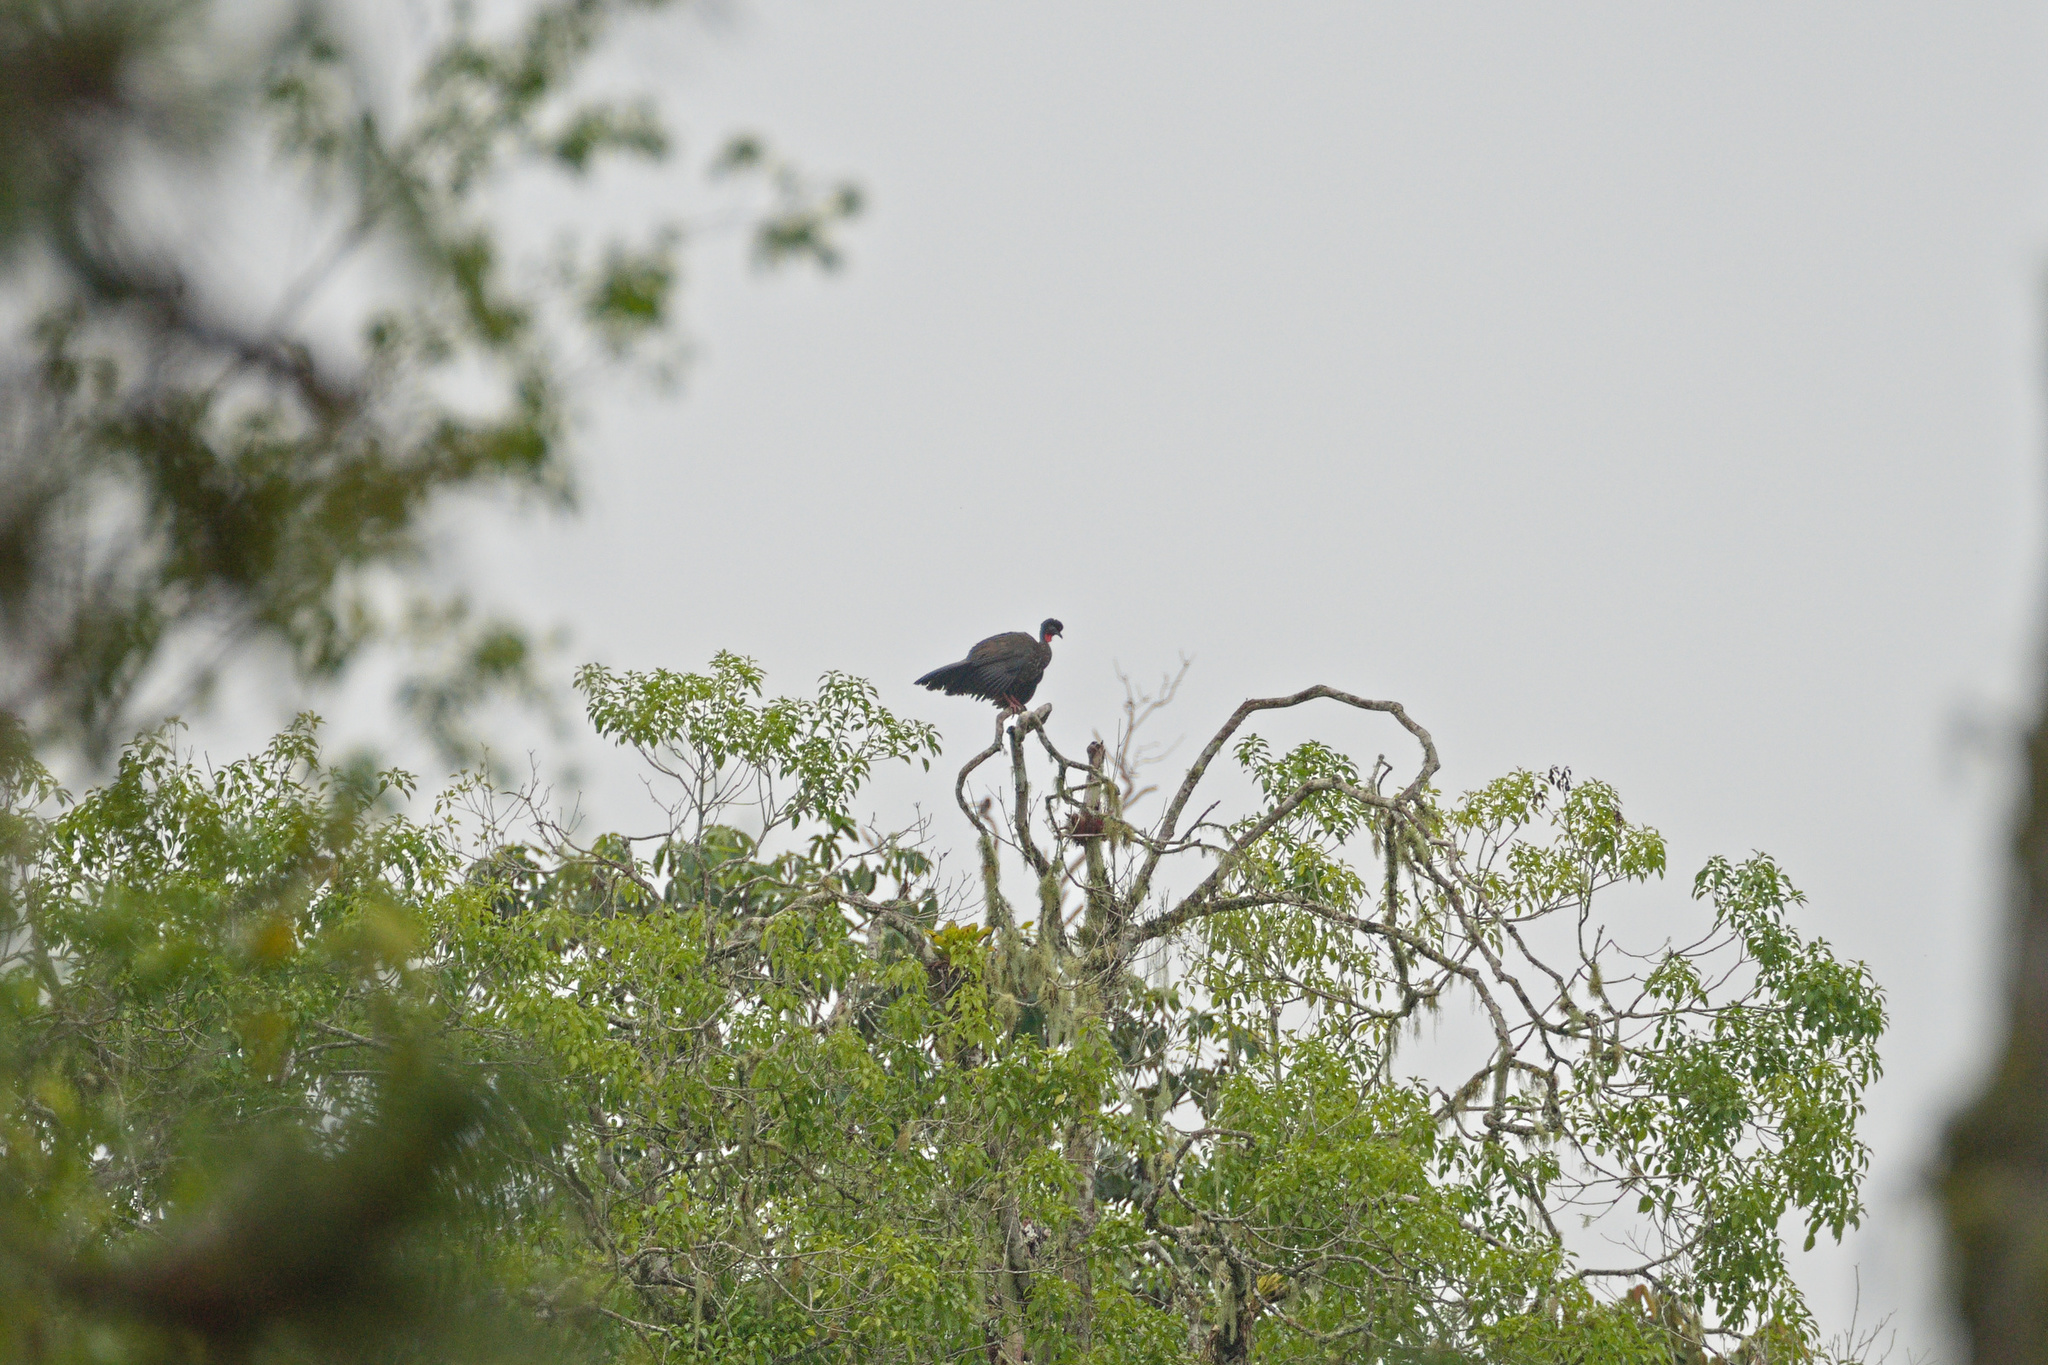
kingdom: Animalia
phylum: Chordata
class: Aves
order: Galliformes
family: Cracidae
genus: Penelope
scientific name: Penelope purpurascens
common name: Crested guan
